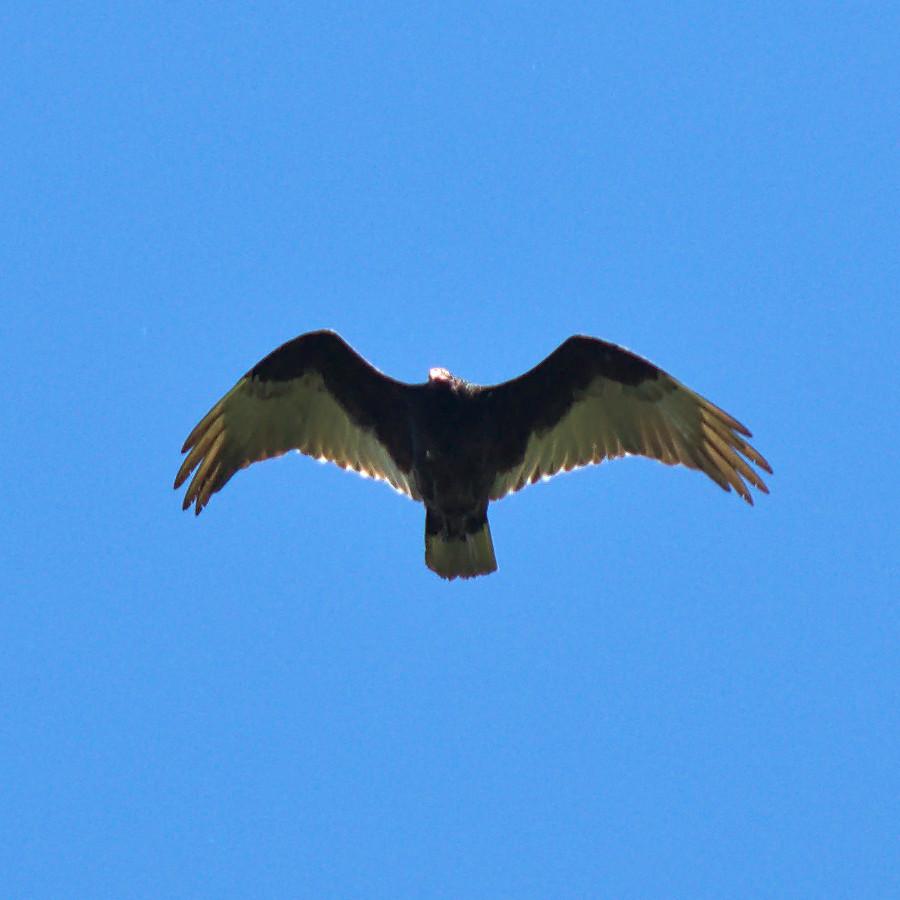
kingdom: Animalia
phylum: Chordata
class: Aves
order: Accipitriformes
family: Cathartidae
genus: Cathartes
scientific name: Cathartes aura
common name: Turkey vulture
